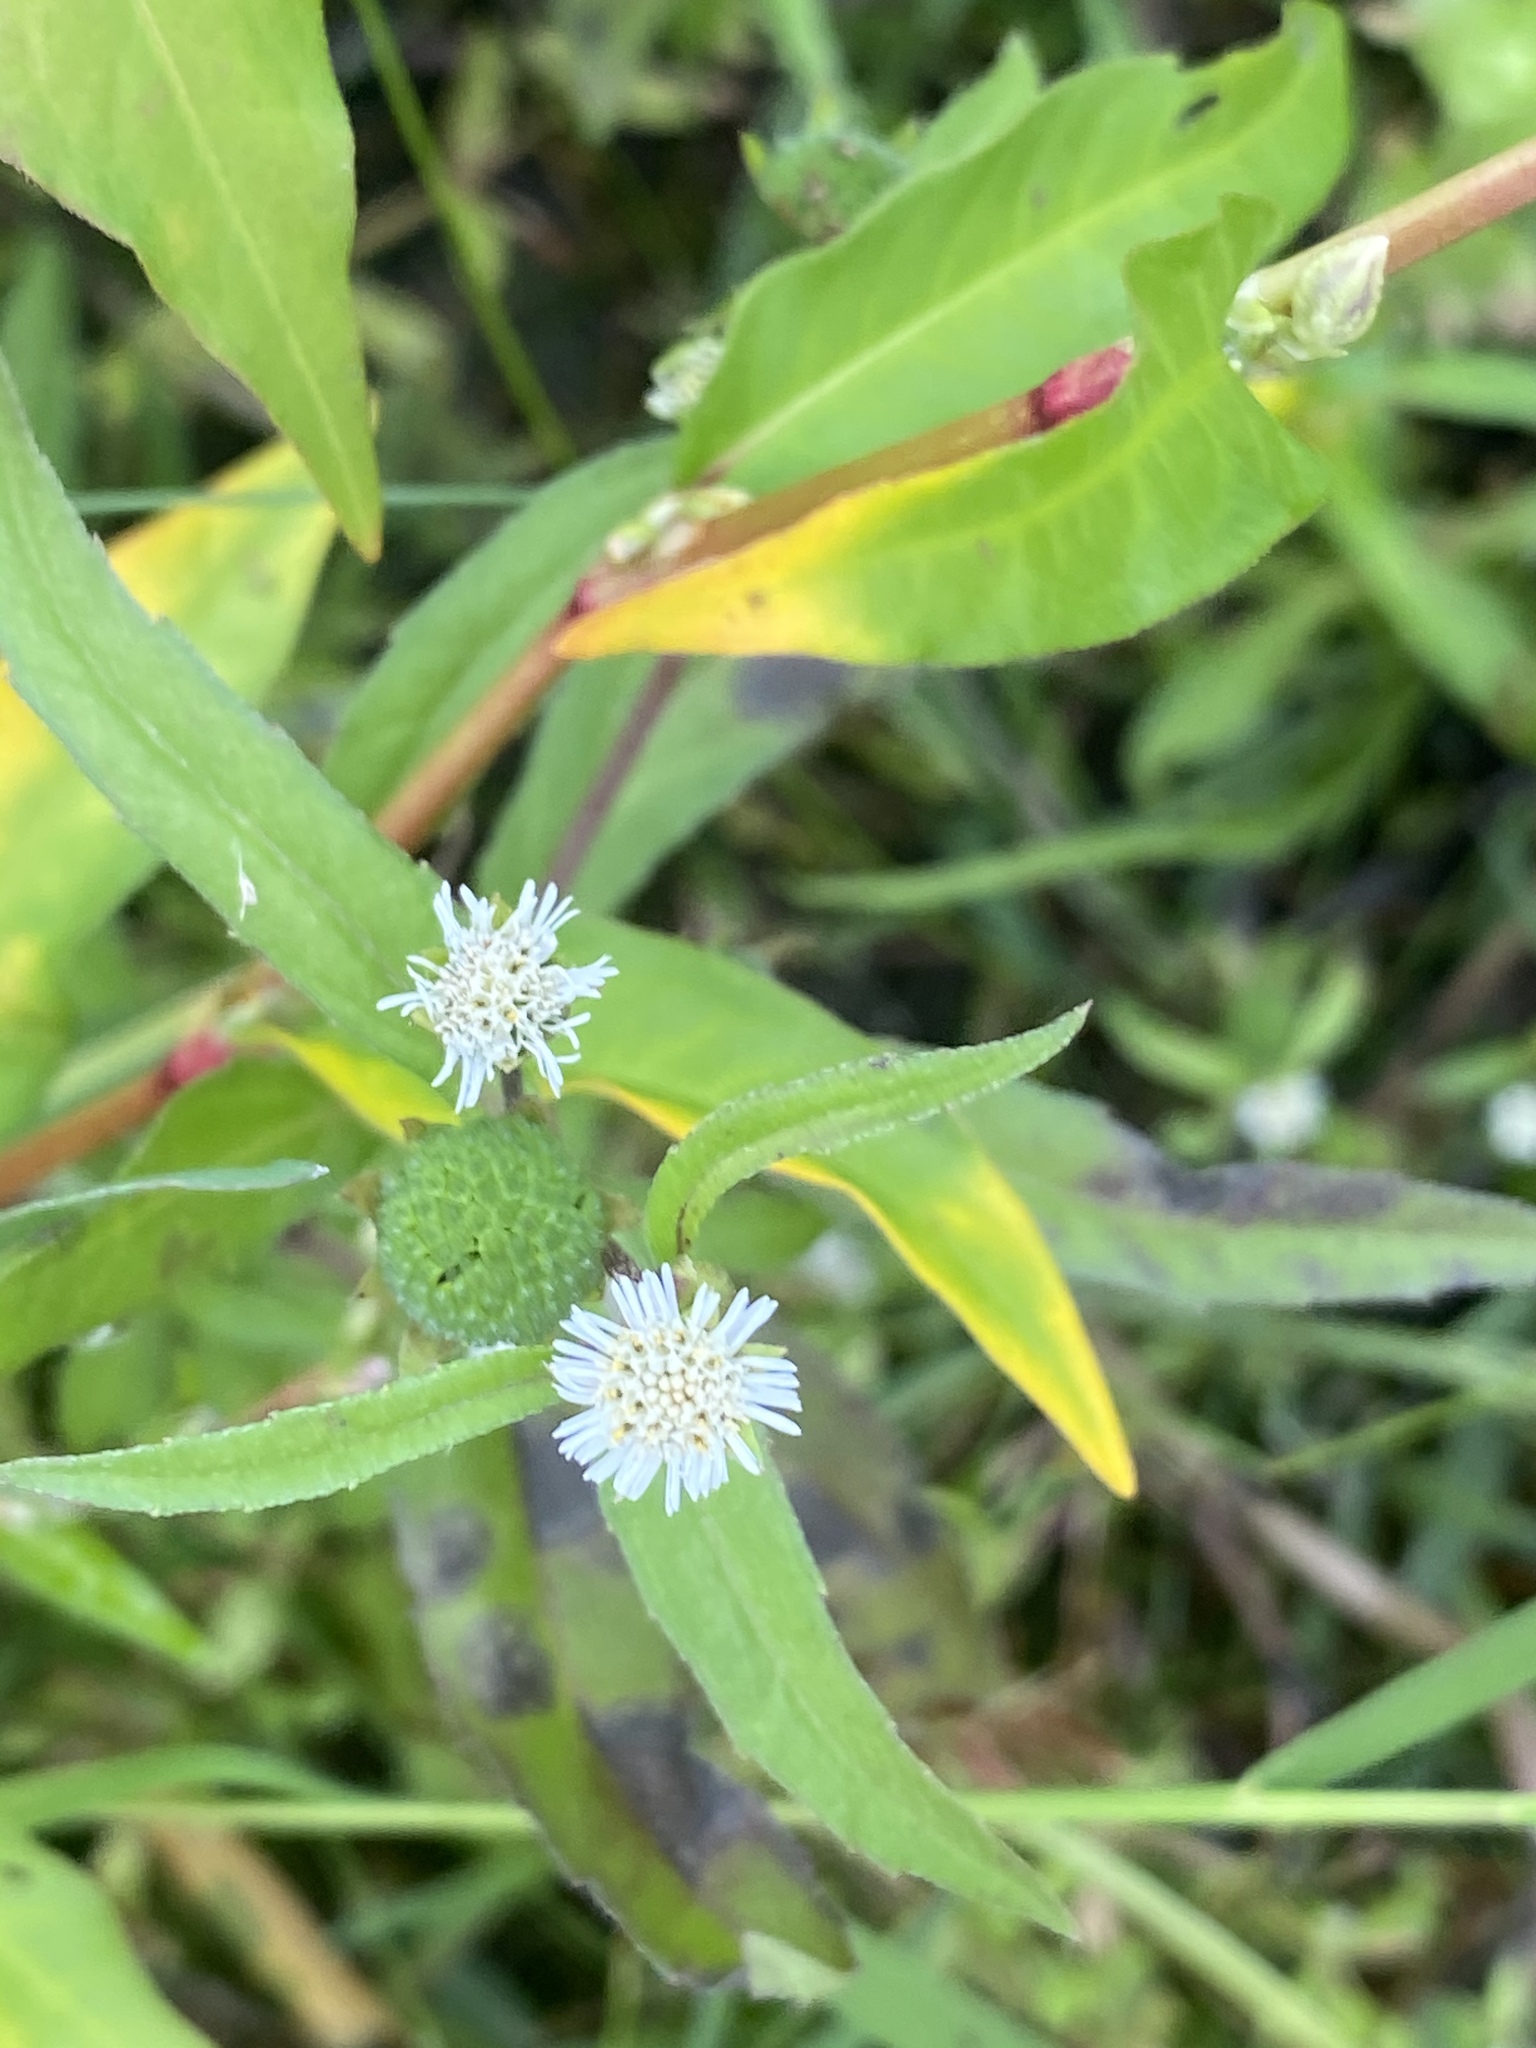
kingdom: Plantae
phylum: Tracheophyta
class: Magnoliopsida
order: Asterales
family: Asteraceae
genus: Eclipta
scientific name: Eclipta prostrata
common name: False daisy
